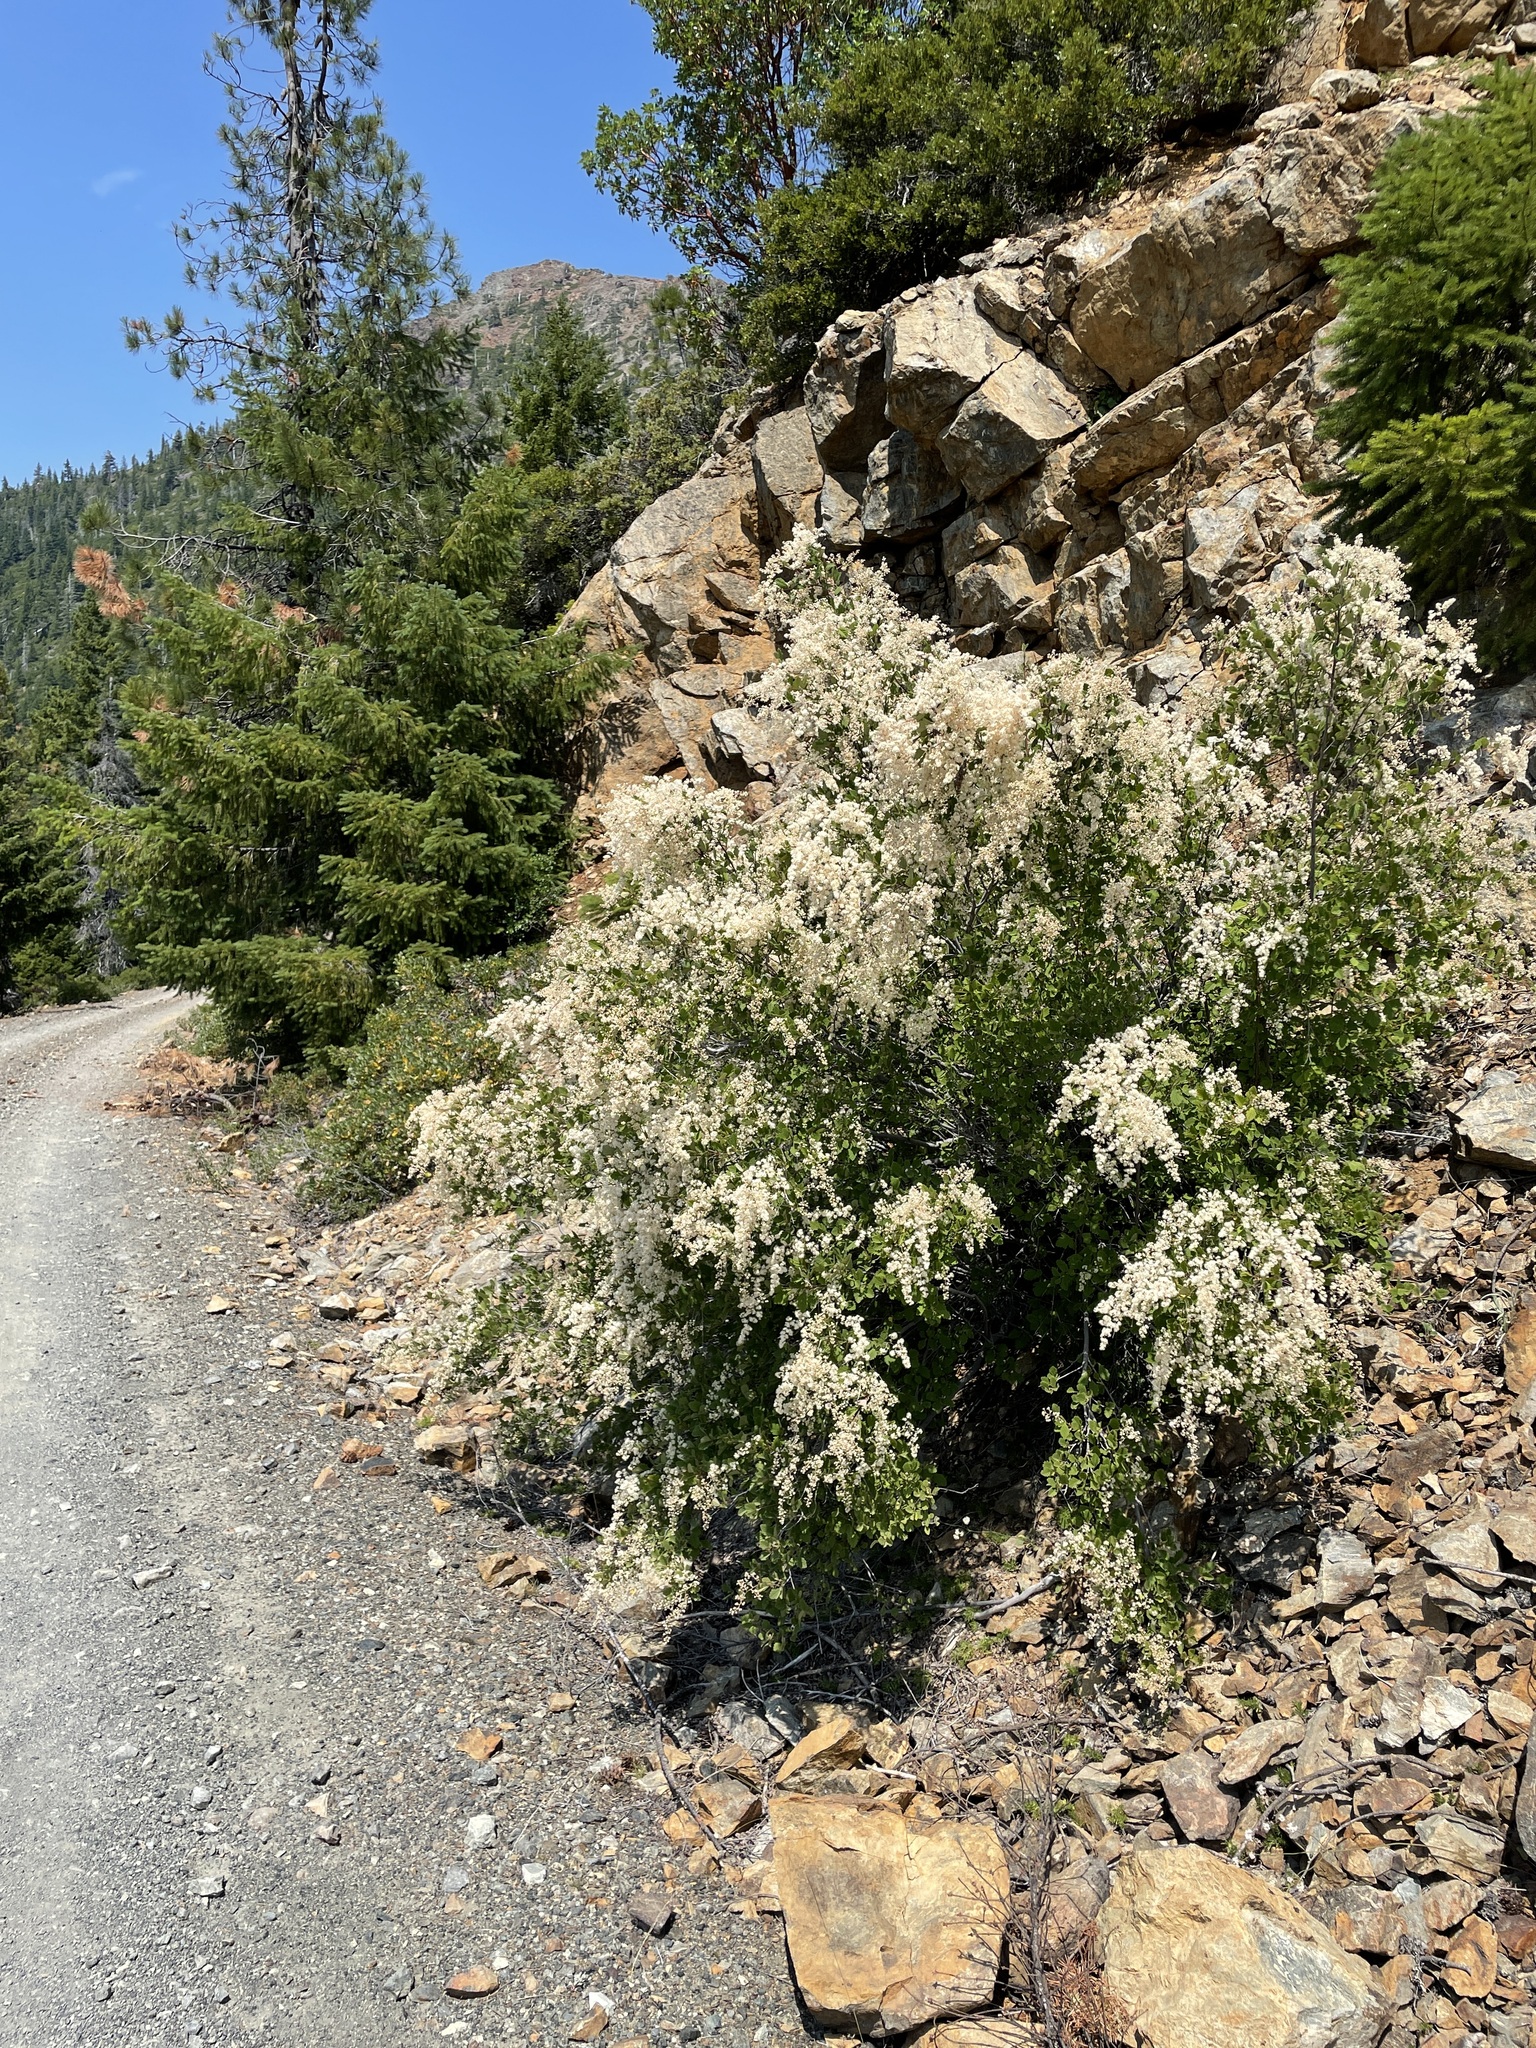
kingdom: Plantae
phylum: Tracheophyta
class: Magnoliopsida
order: Rosales
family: Rosaceae
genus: Holodiscus
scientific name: Holodiscus discolor
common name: Oceanspray
